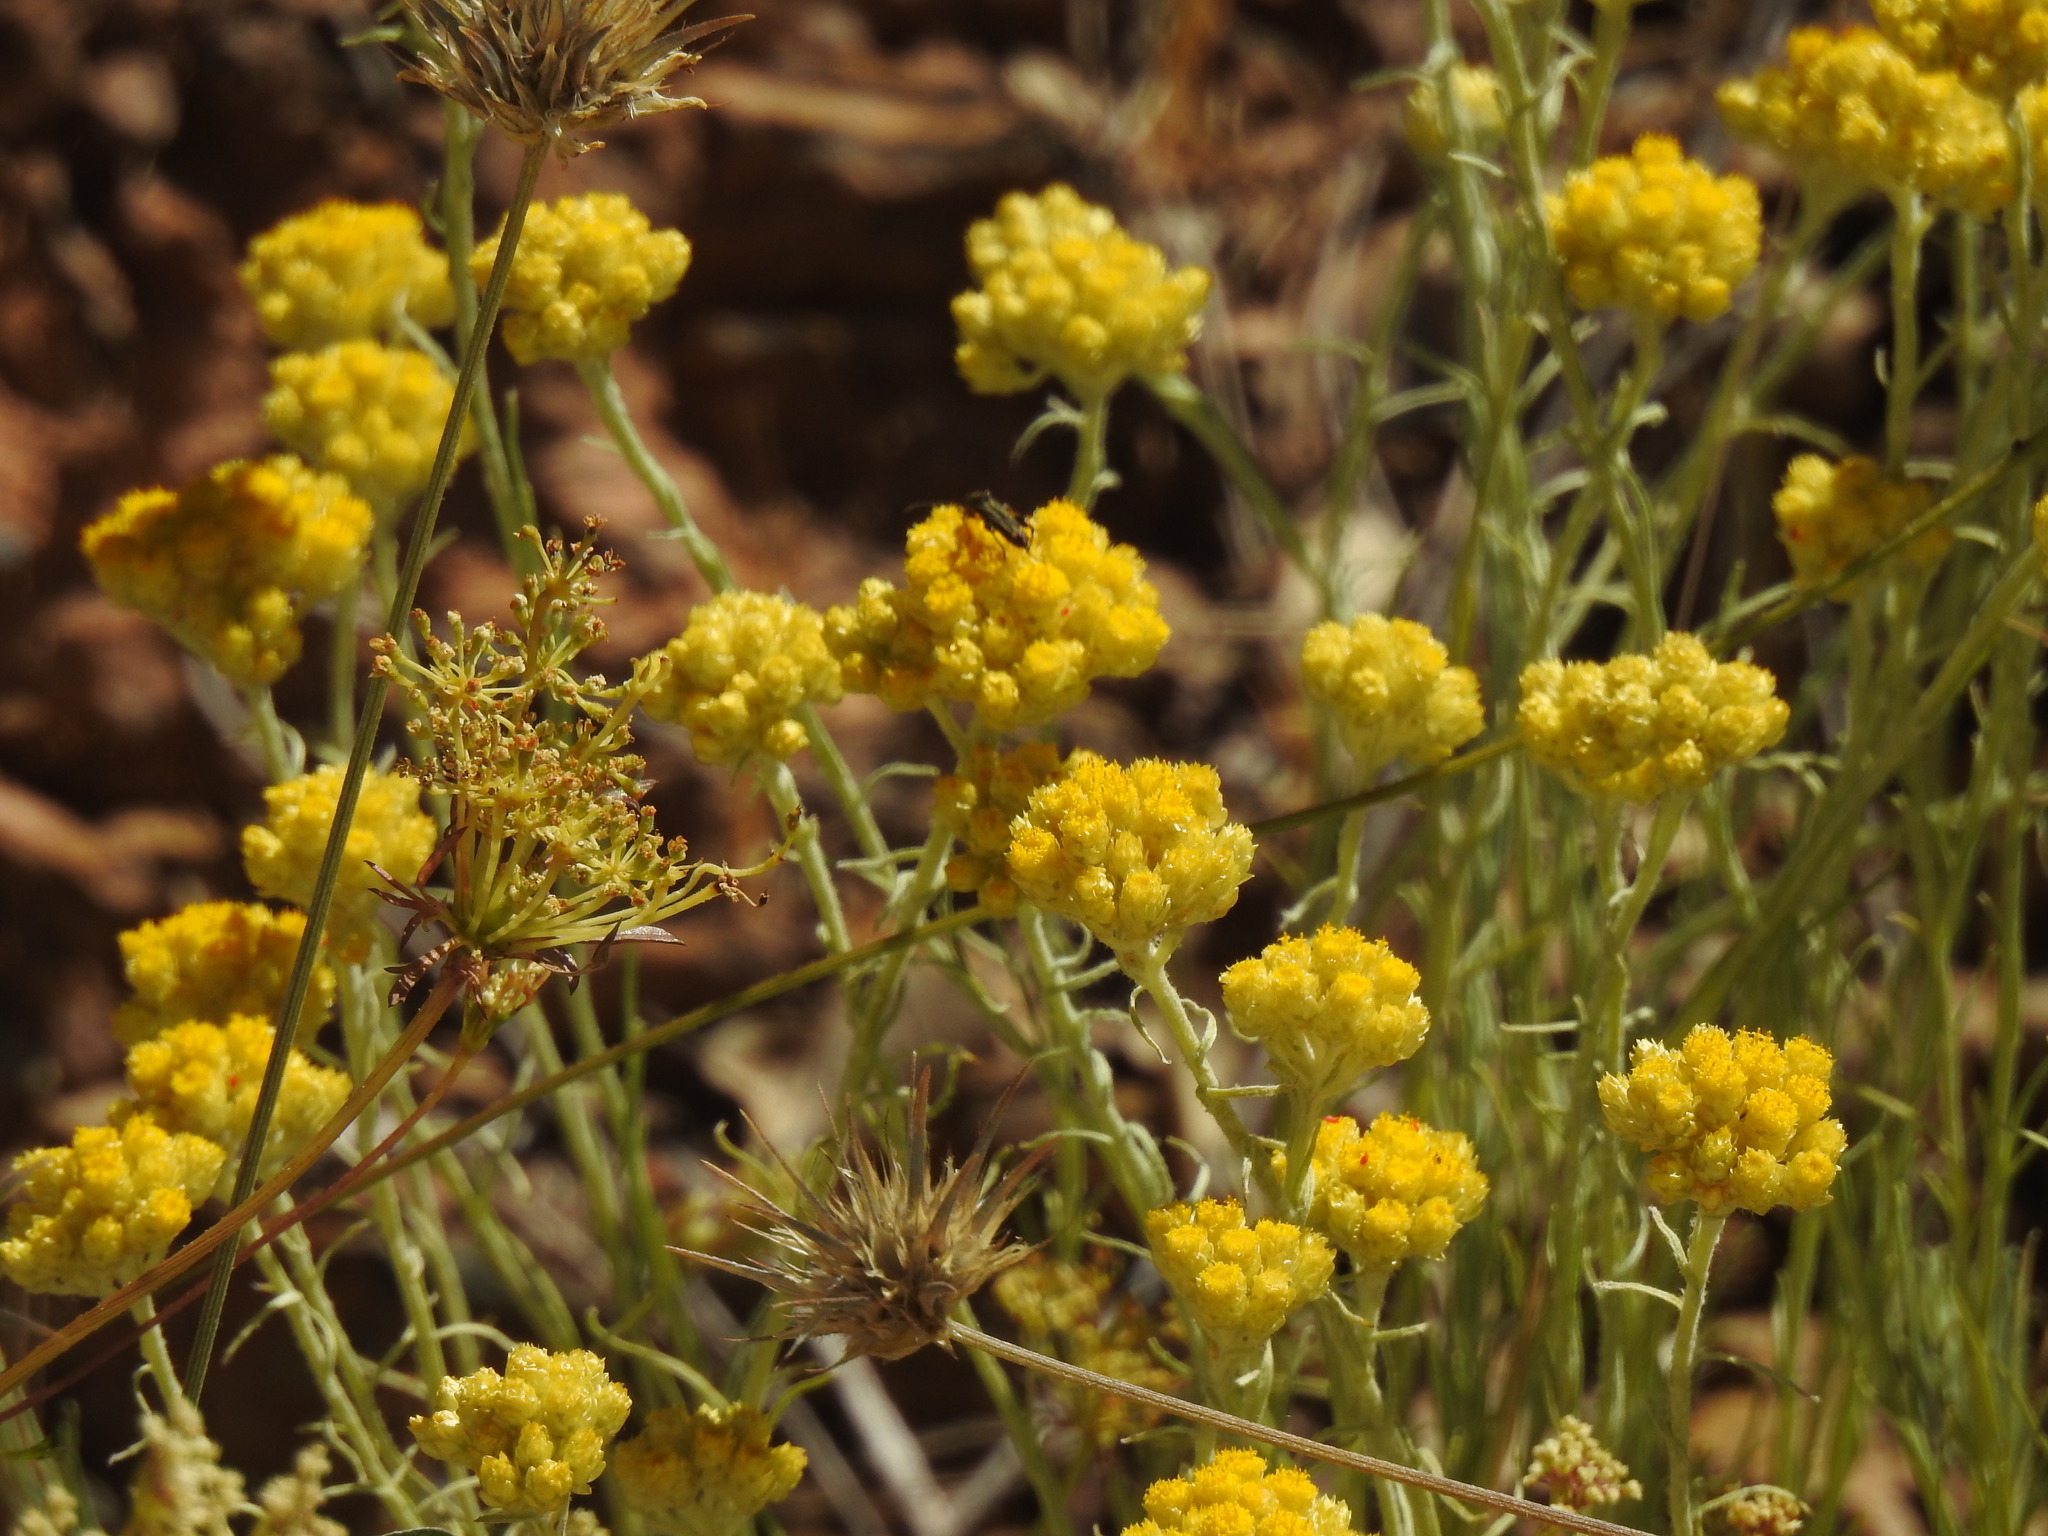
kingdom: Plantae
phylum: Tracheophyta
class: Magnoliopsida
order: Asterales
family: Asteraceae
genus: Helichrysum
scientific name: Helichrysum stoechas
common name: Goldilocks
